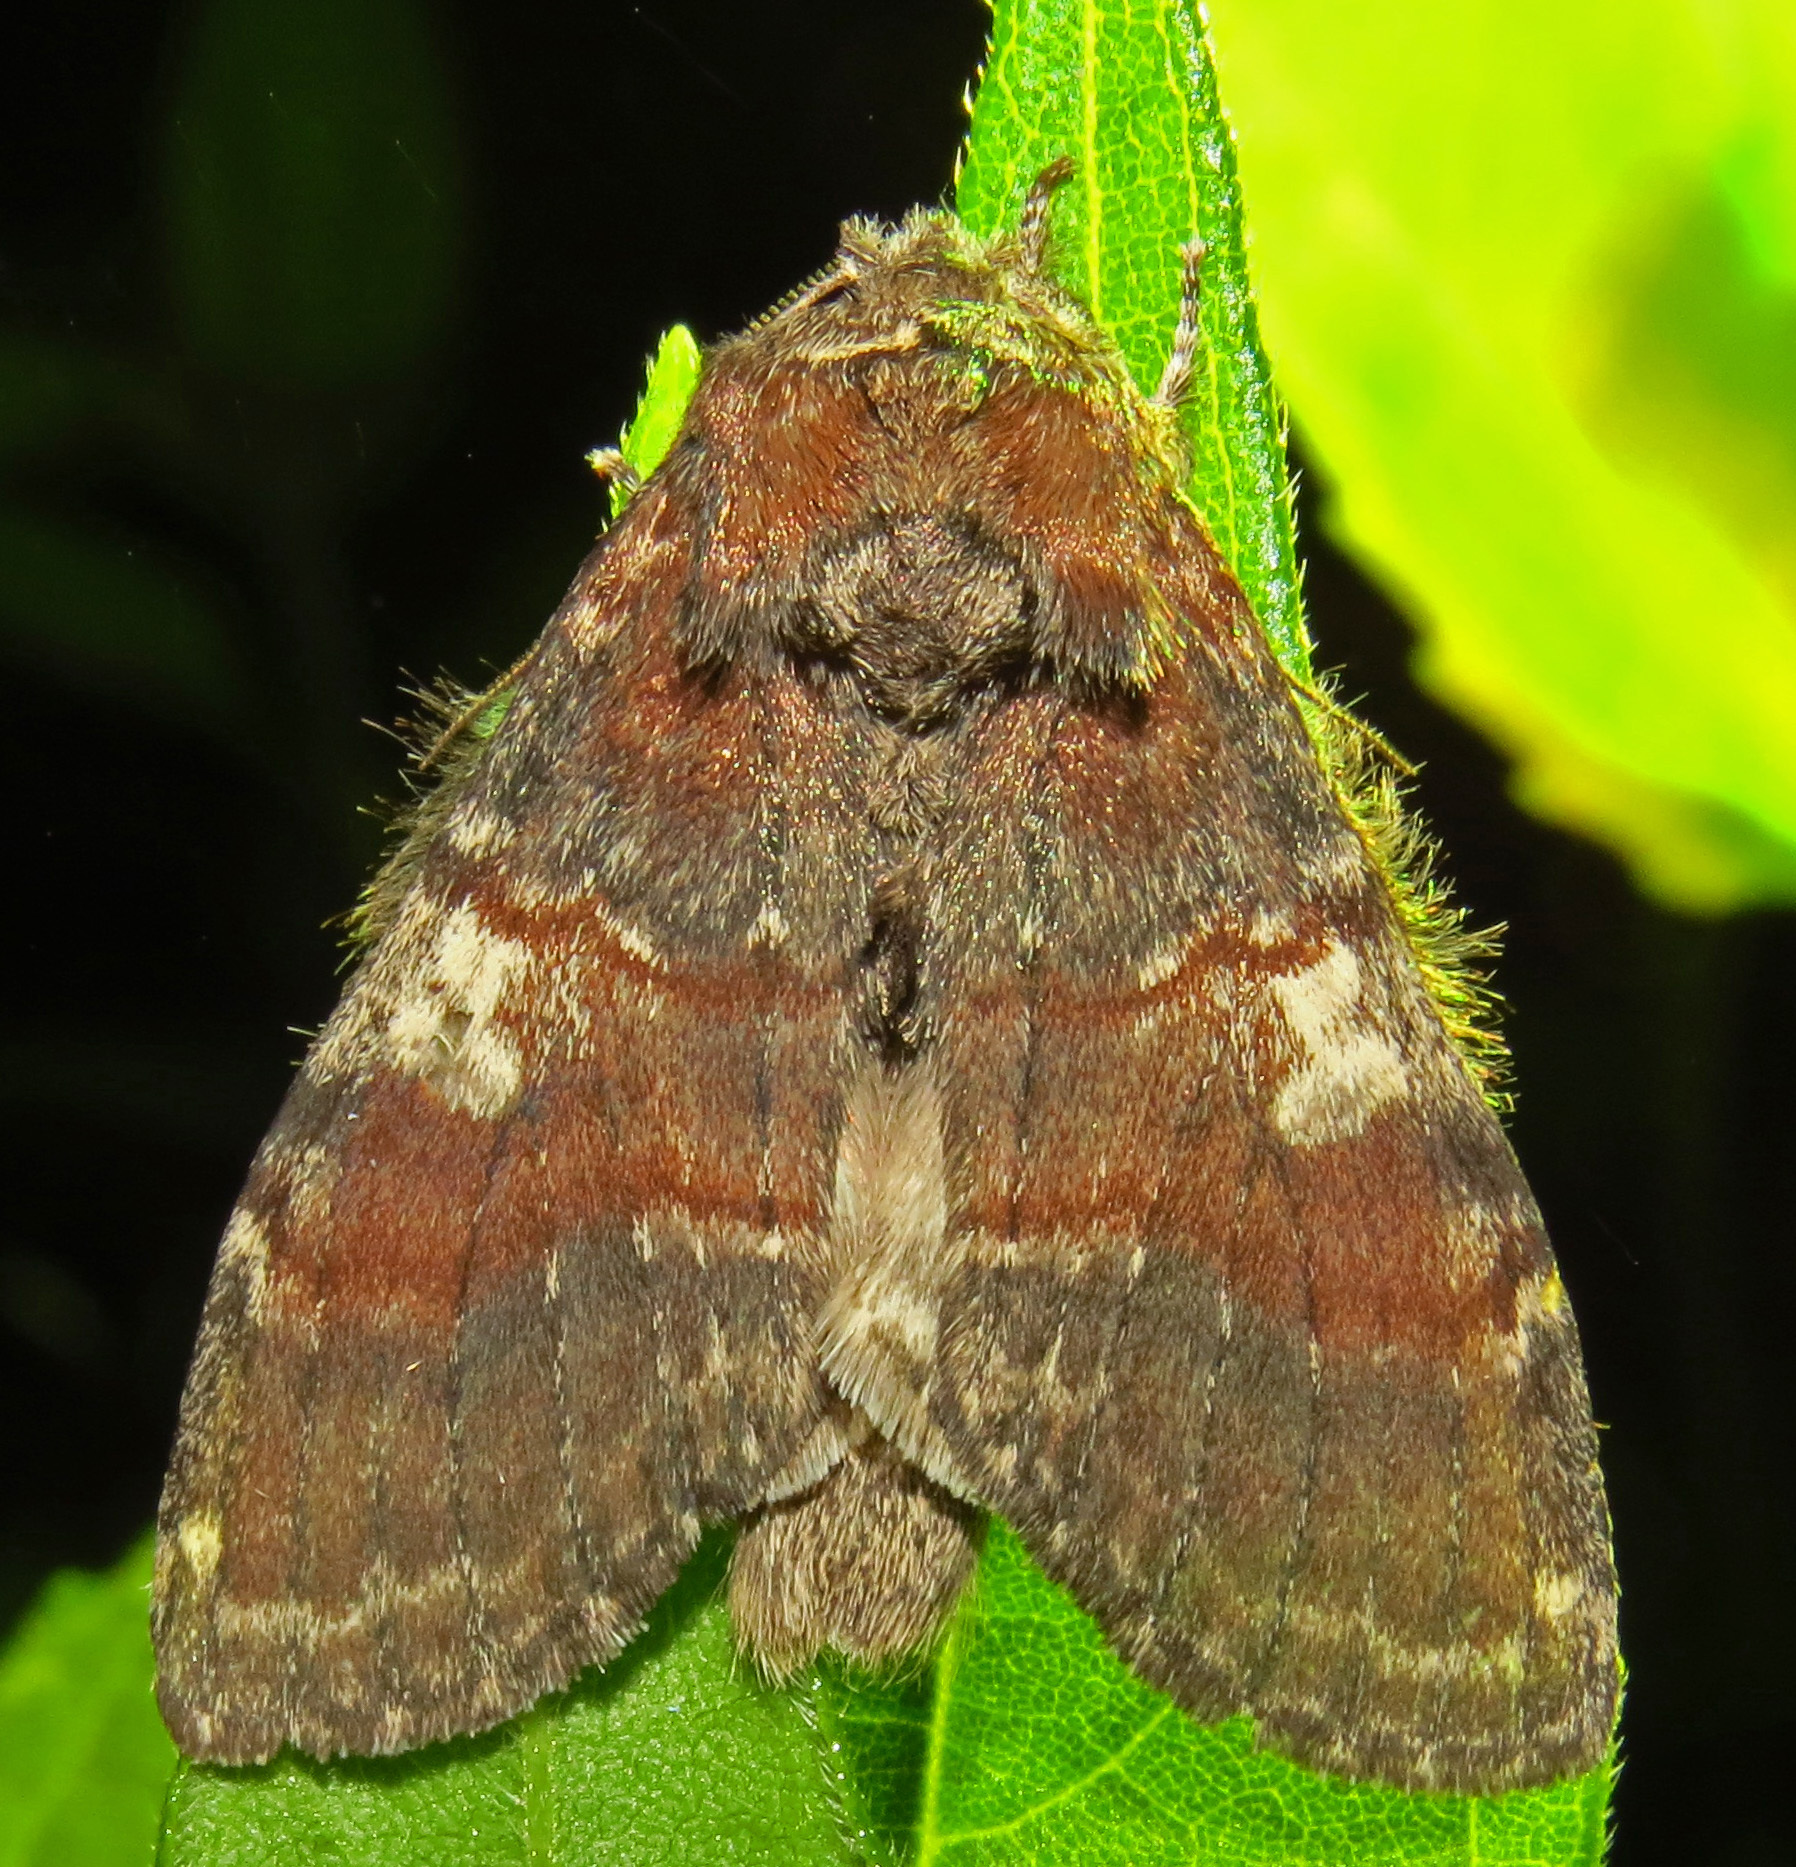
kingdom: Animalia
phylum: Arthropoda
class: Insecta
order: Lepidoptera
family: Notodontidae
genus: Peridea
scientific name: Peridea ferruginea
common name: Chocolate prominent
